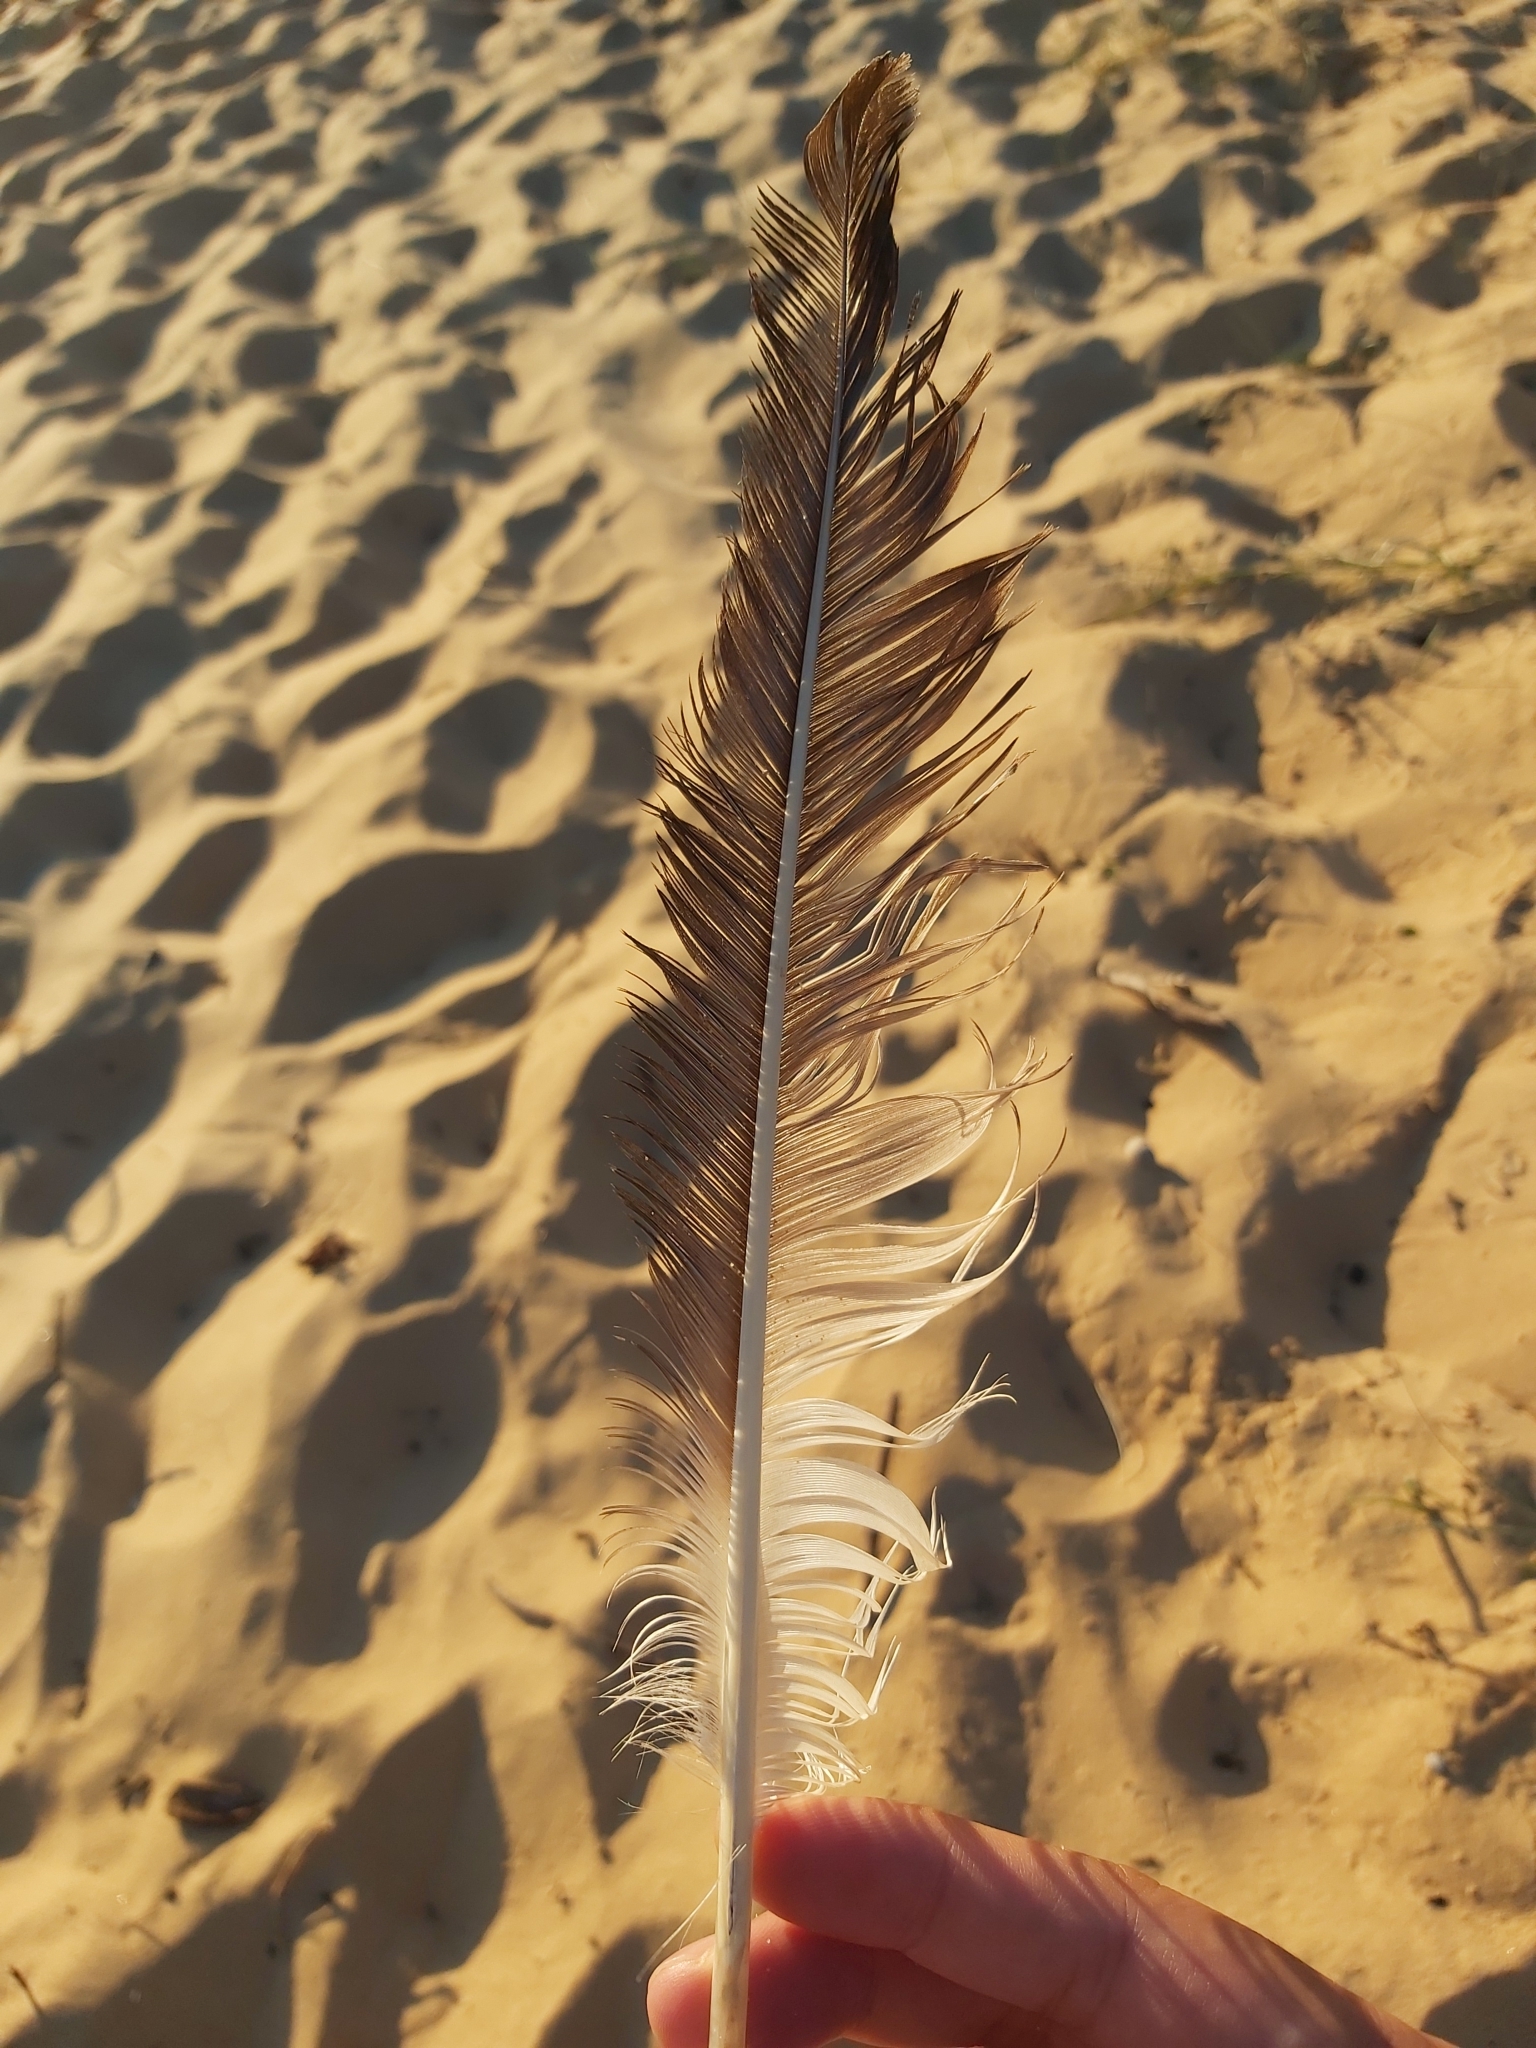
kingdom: Animalia
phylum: Chordata
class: Aves
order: Suliformes
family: Sulidae
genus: Morus
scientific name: Morus serrator
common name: Australasian gannet
